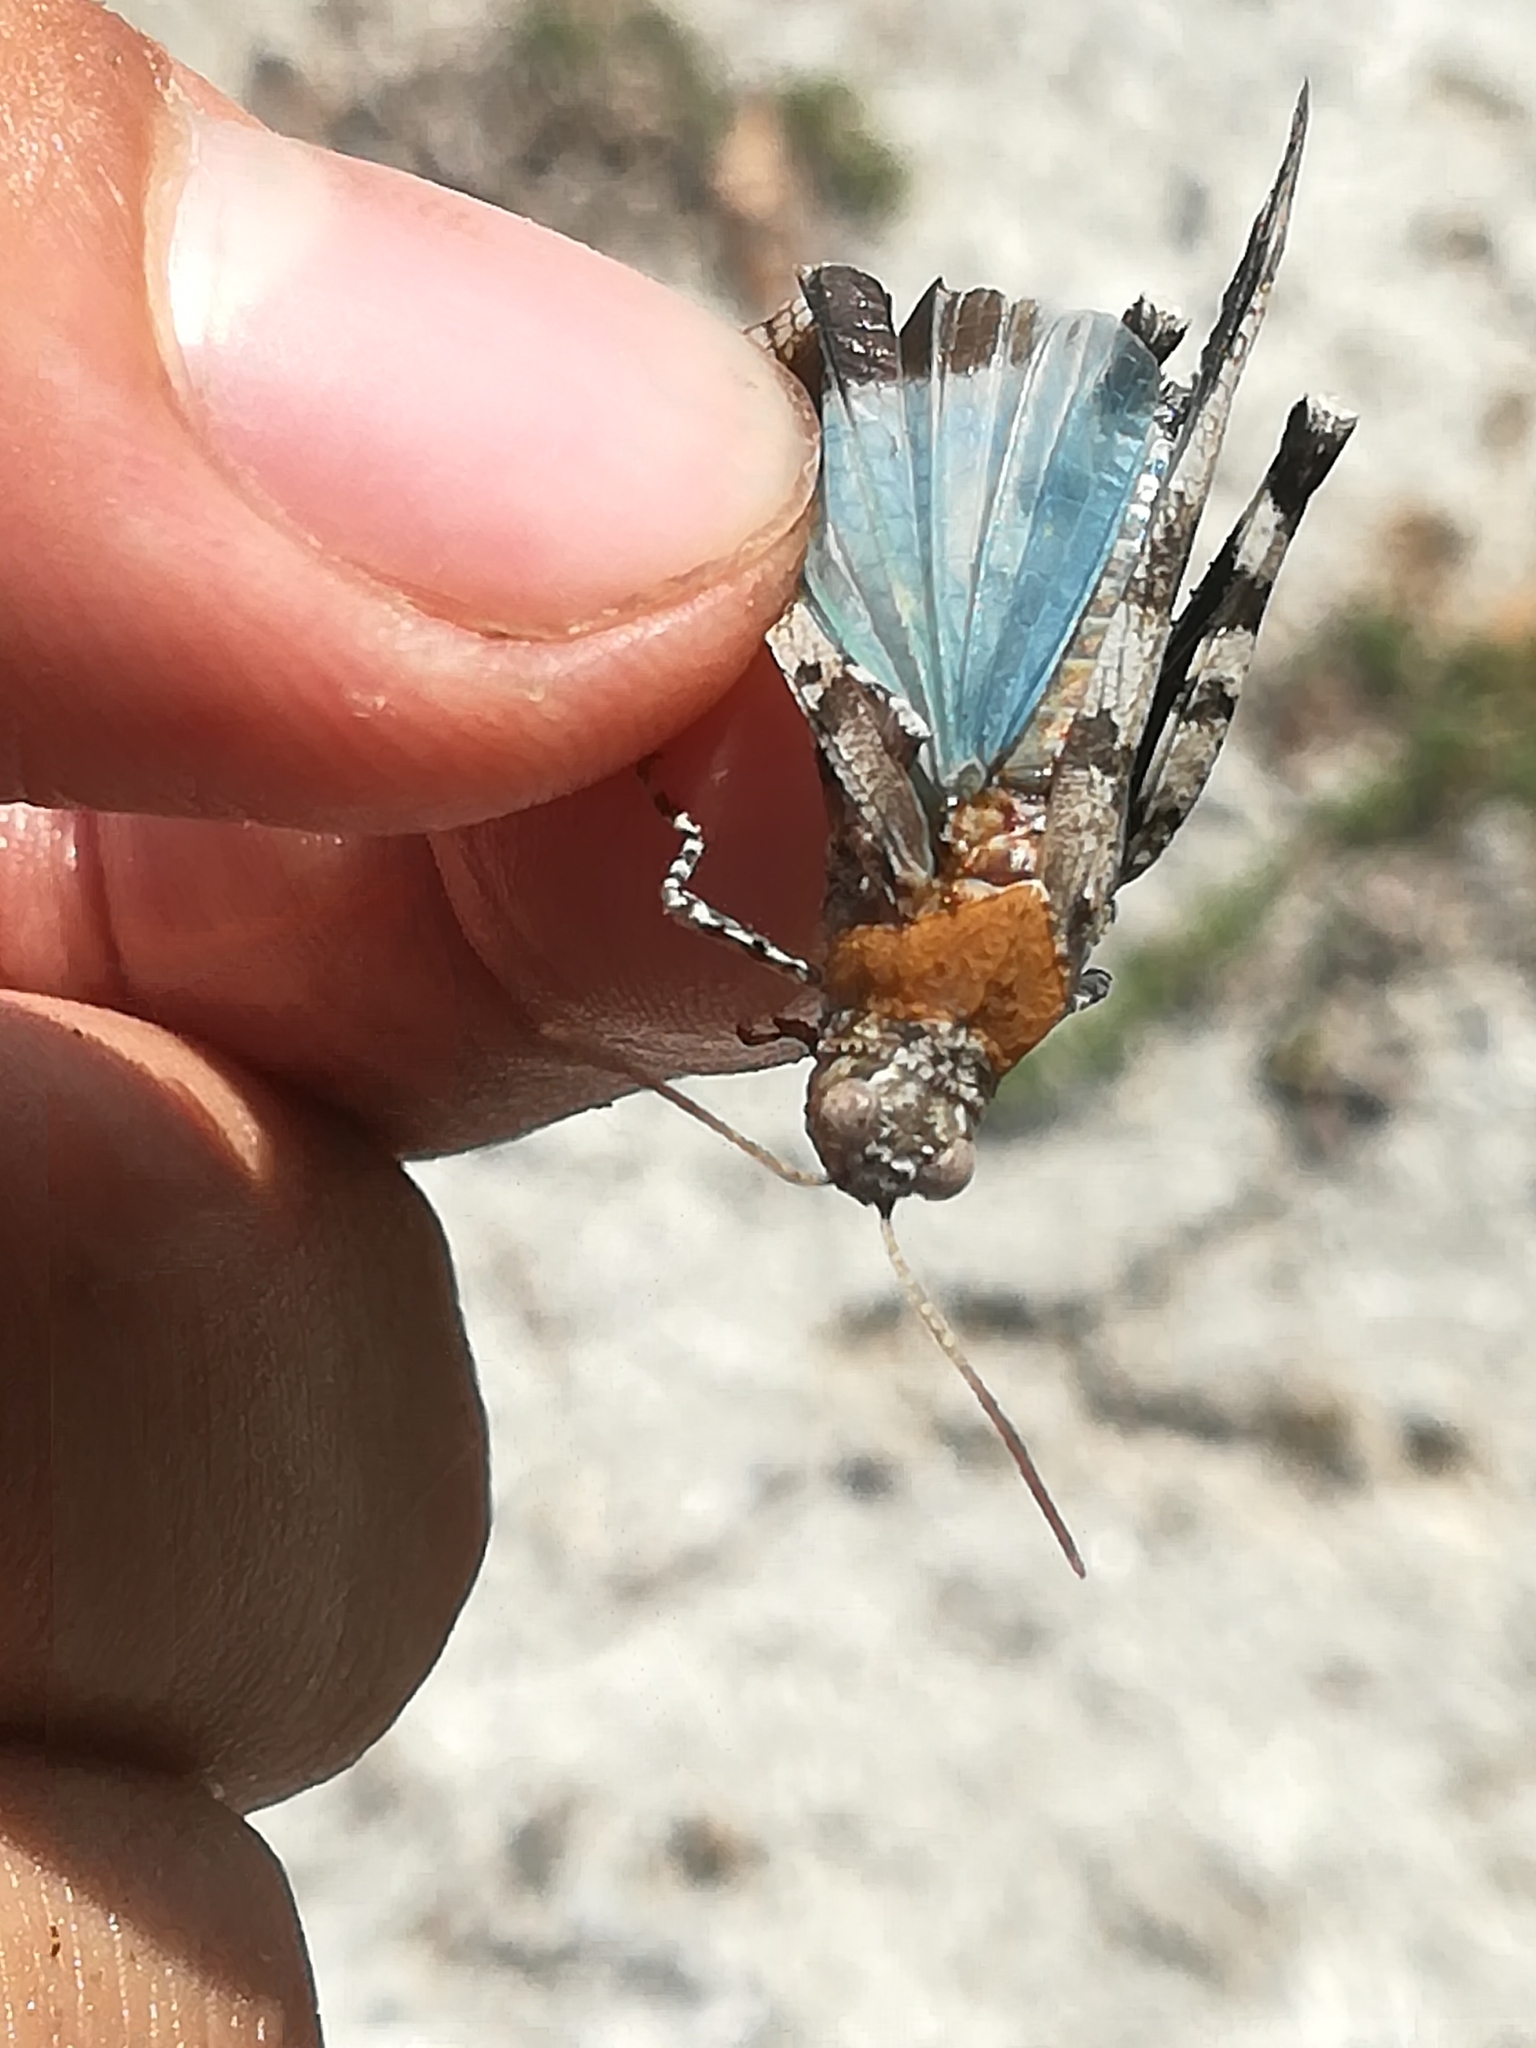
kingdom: Animalia
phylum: Arthropoda
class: Insecta
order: Orthoptera
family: Acrididae
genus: Oedipoda
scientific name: Oedipoda caerulescens
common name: Blue-winged grasshopper
